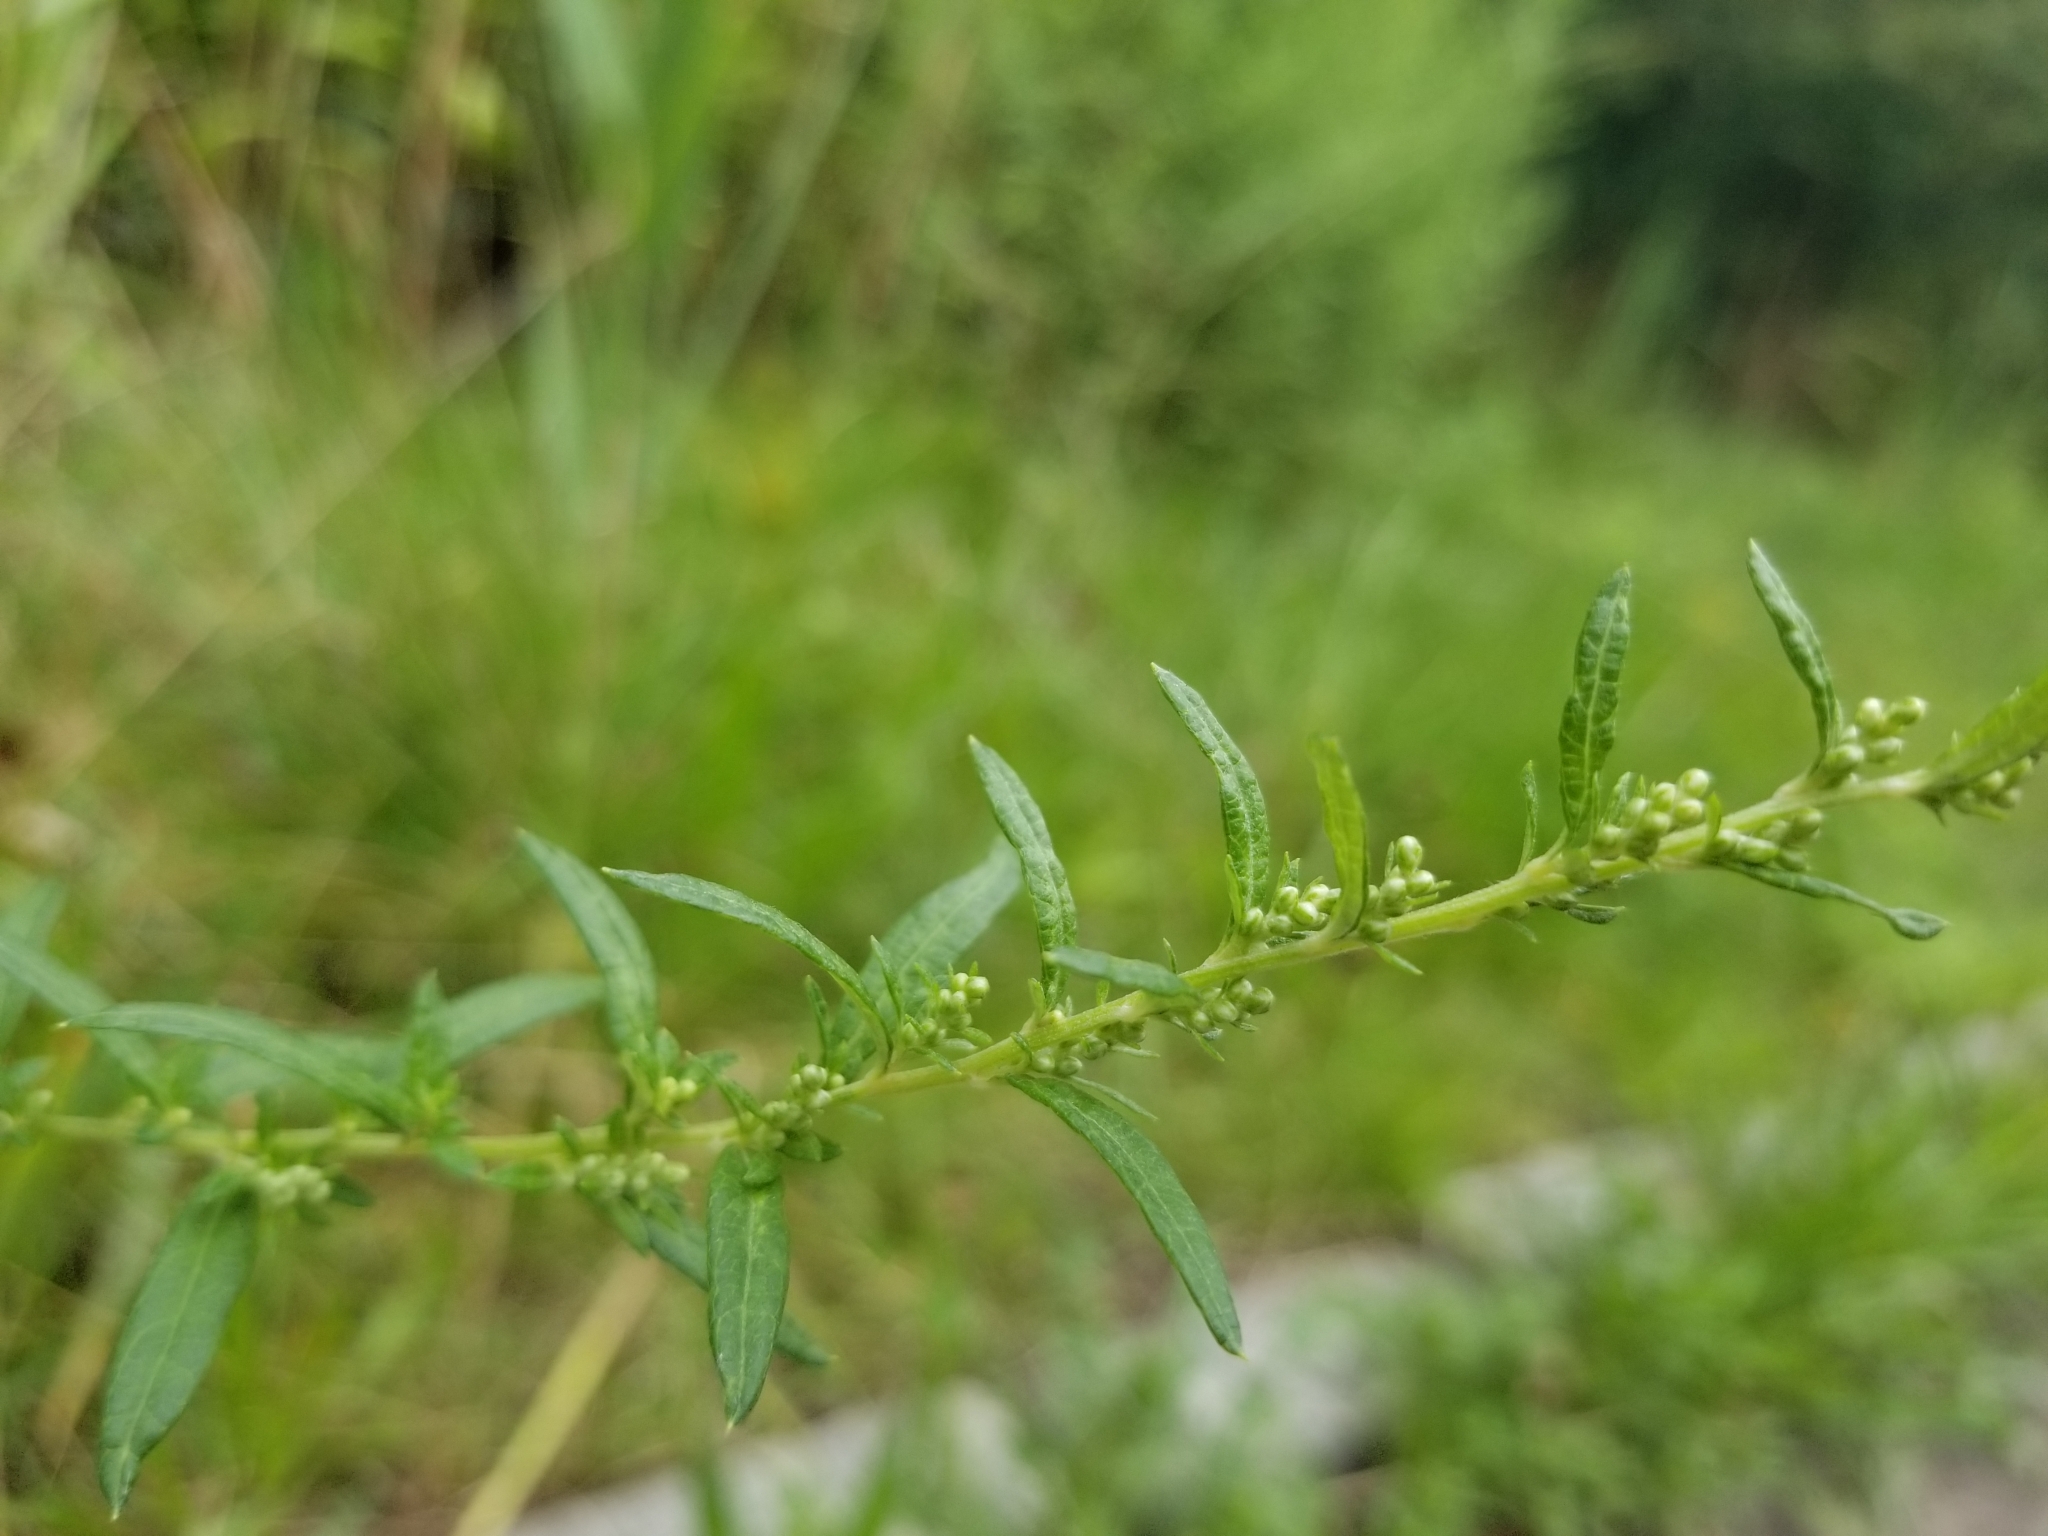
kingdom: Plantae
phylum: Tracheophyta
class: Magnoliopsida
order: Asterales
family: Asteraceae
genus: Artemisia
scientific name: Artemisia vulgaris
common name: Mugwort
